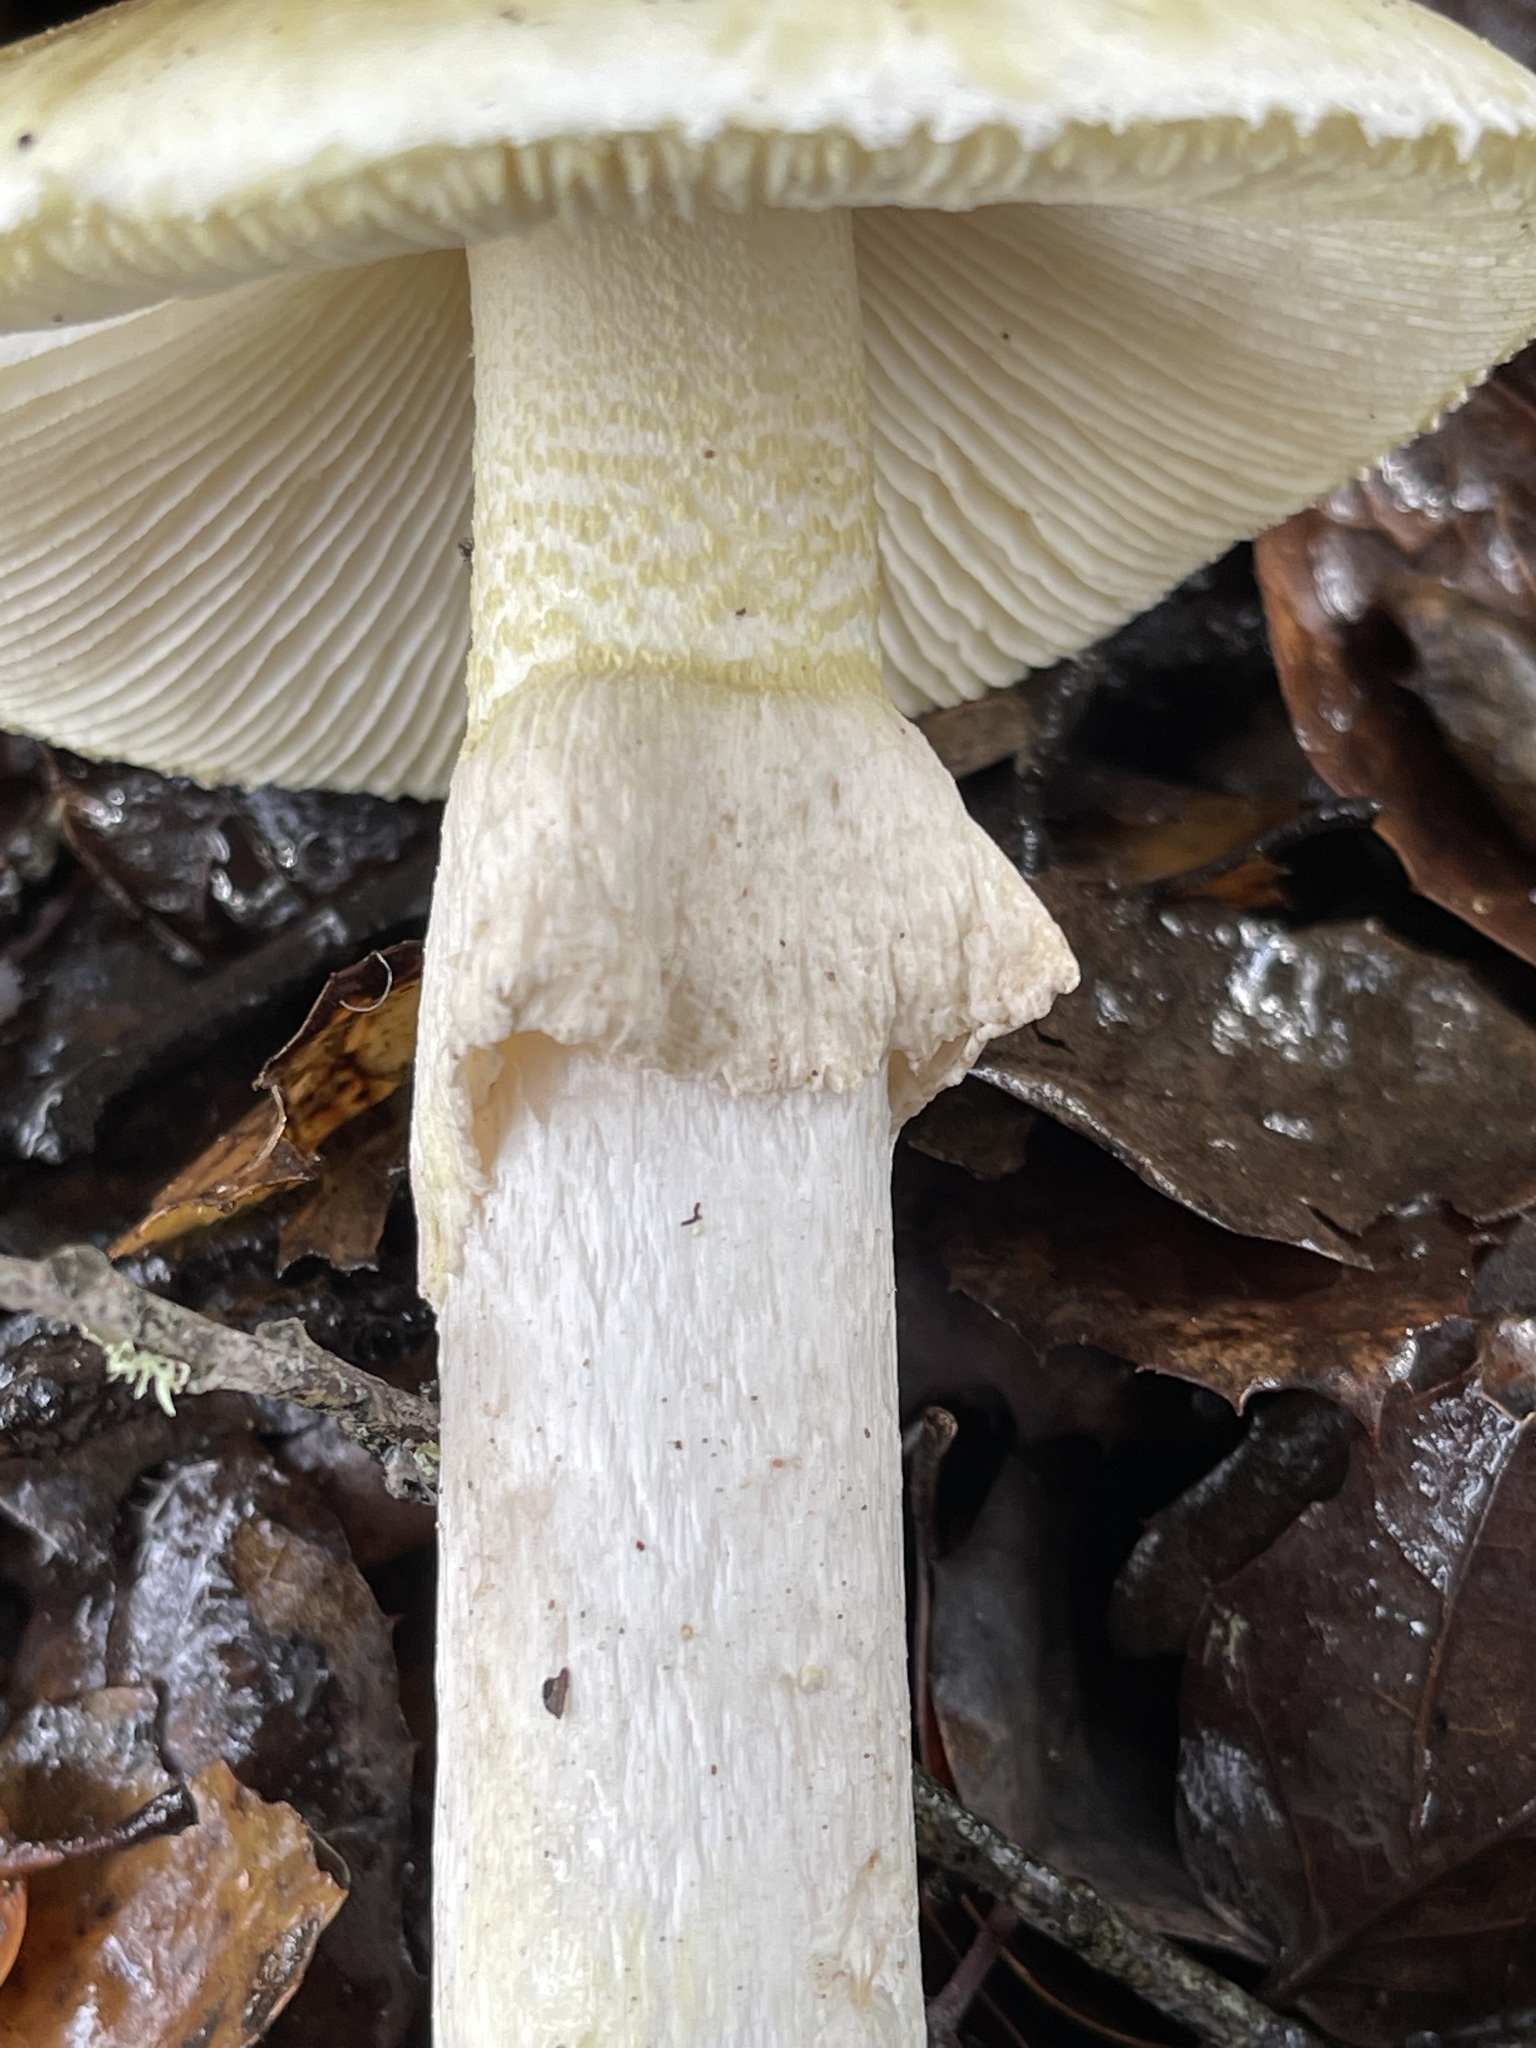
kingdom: Fungi
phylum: Basidiomycota
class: Agaricomycetes
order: Agaricales
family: Amanitaceae
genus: Amanita
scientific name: Amanita phalloides
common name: Death cap
